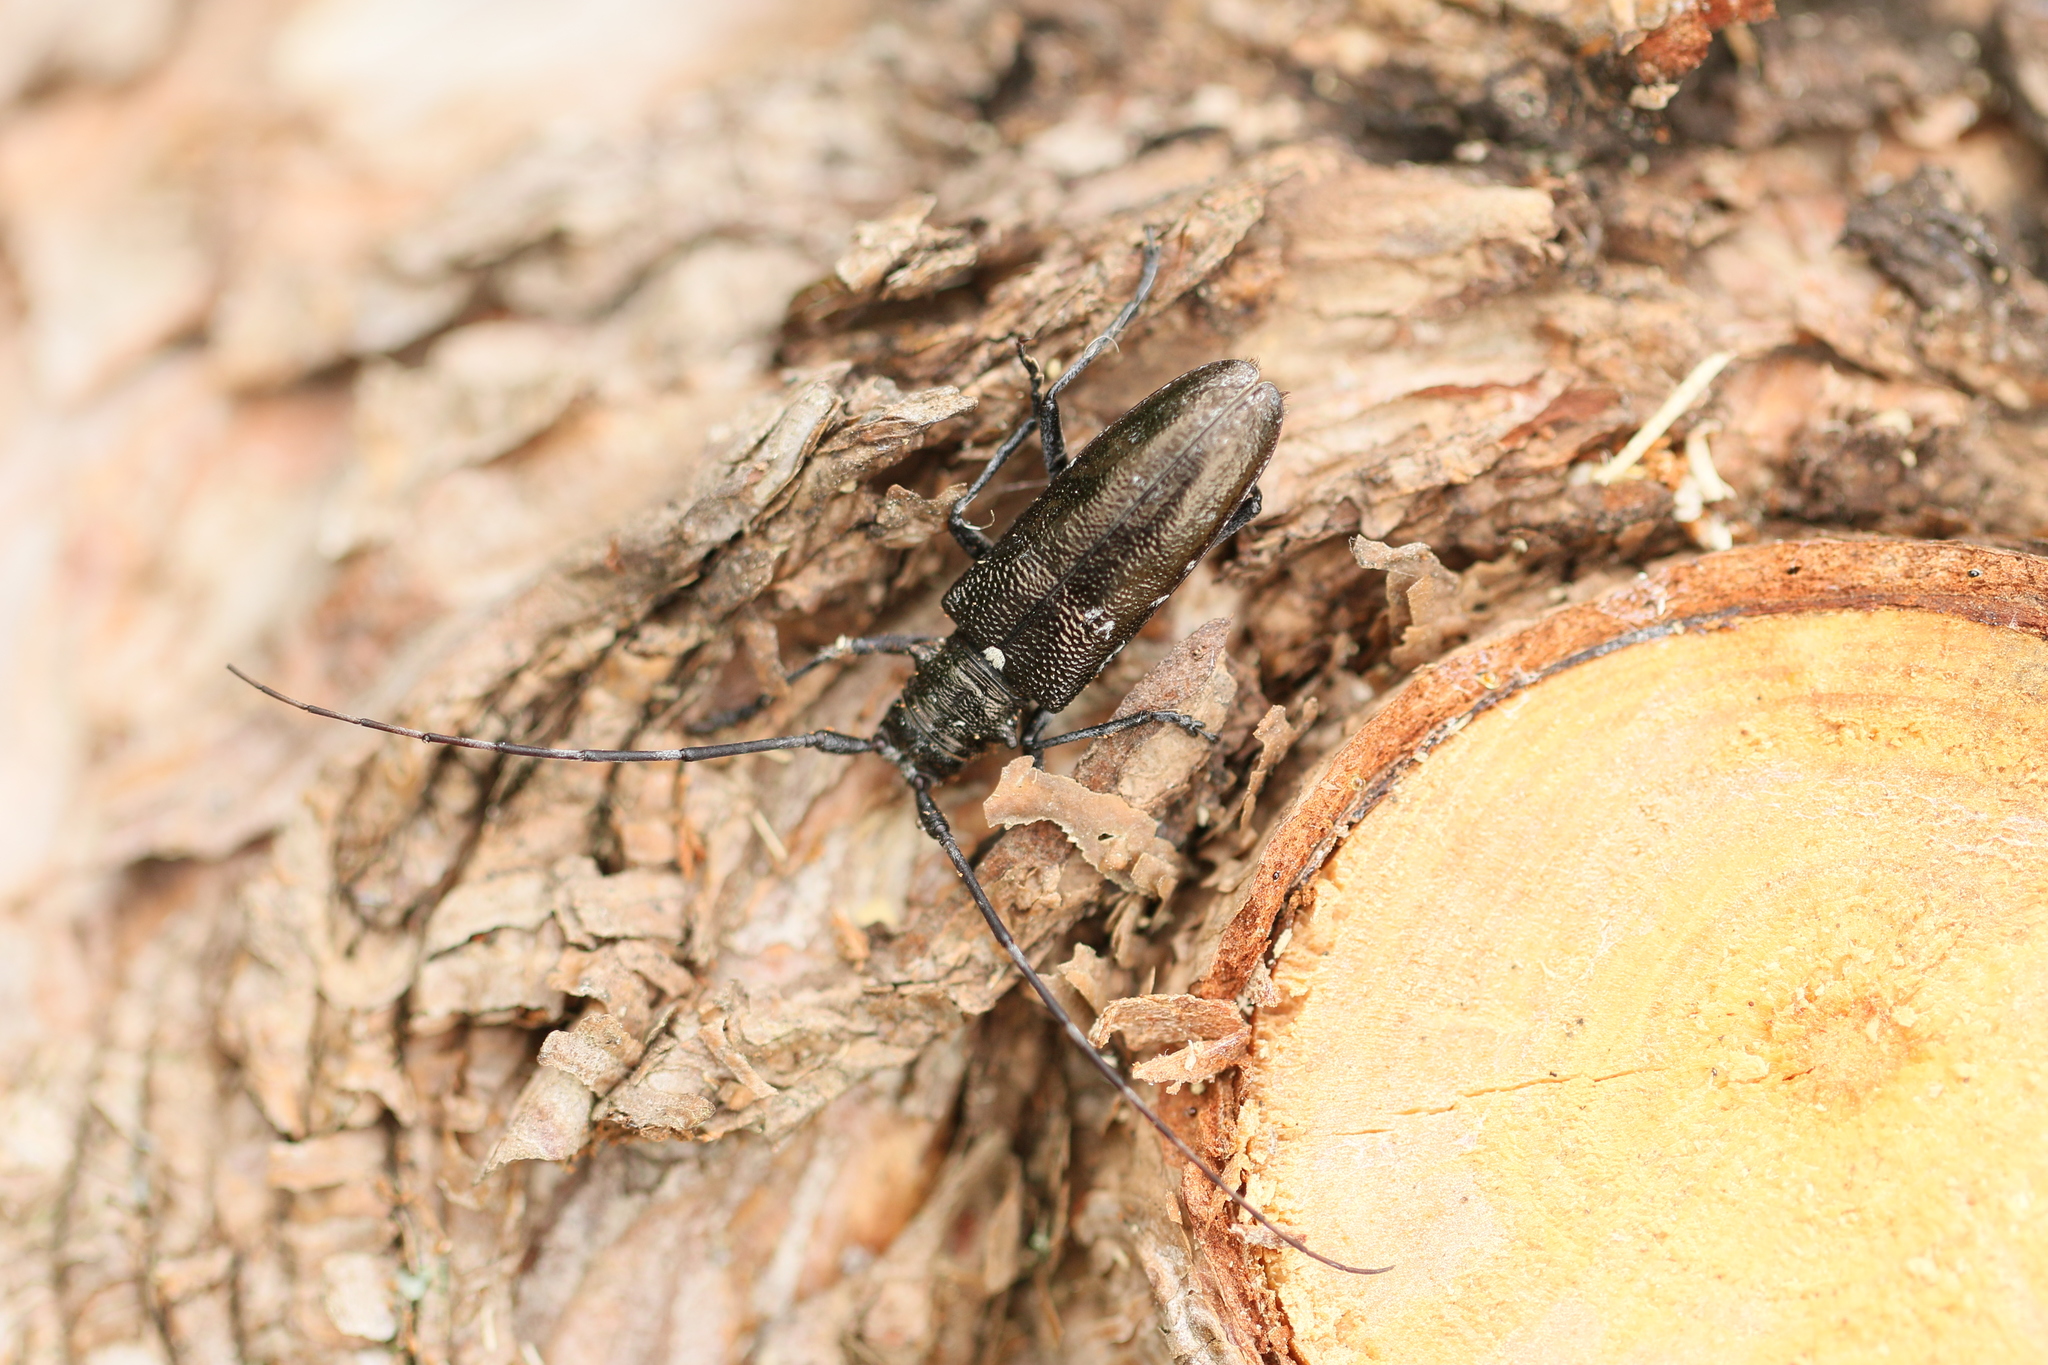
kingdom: Animalia
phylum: Arthropoda
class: Insecta
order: Coleoptera
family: Cerambycidae
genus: Monochamus
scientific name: Monochamus scutellatus
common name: White-spotted sawyer beetle
